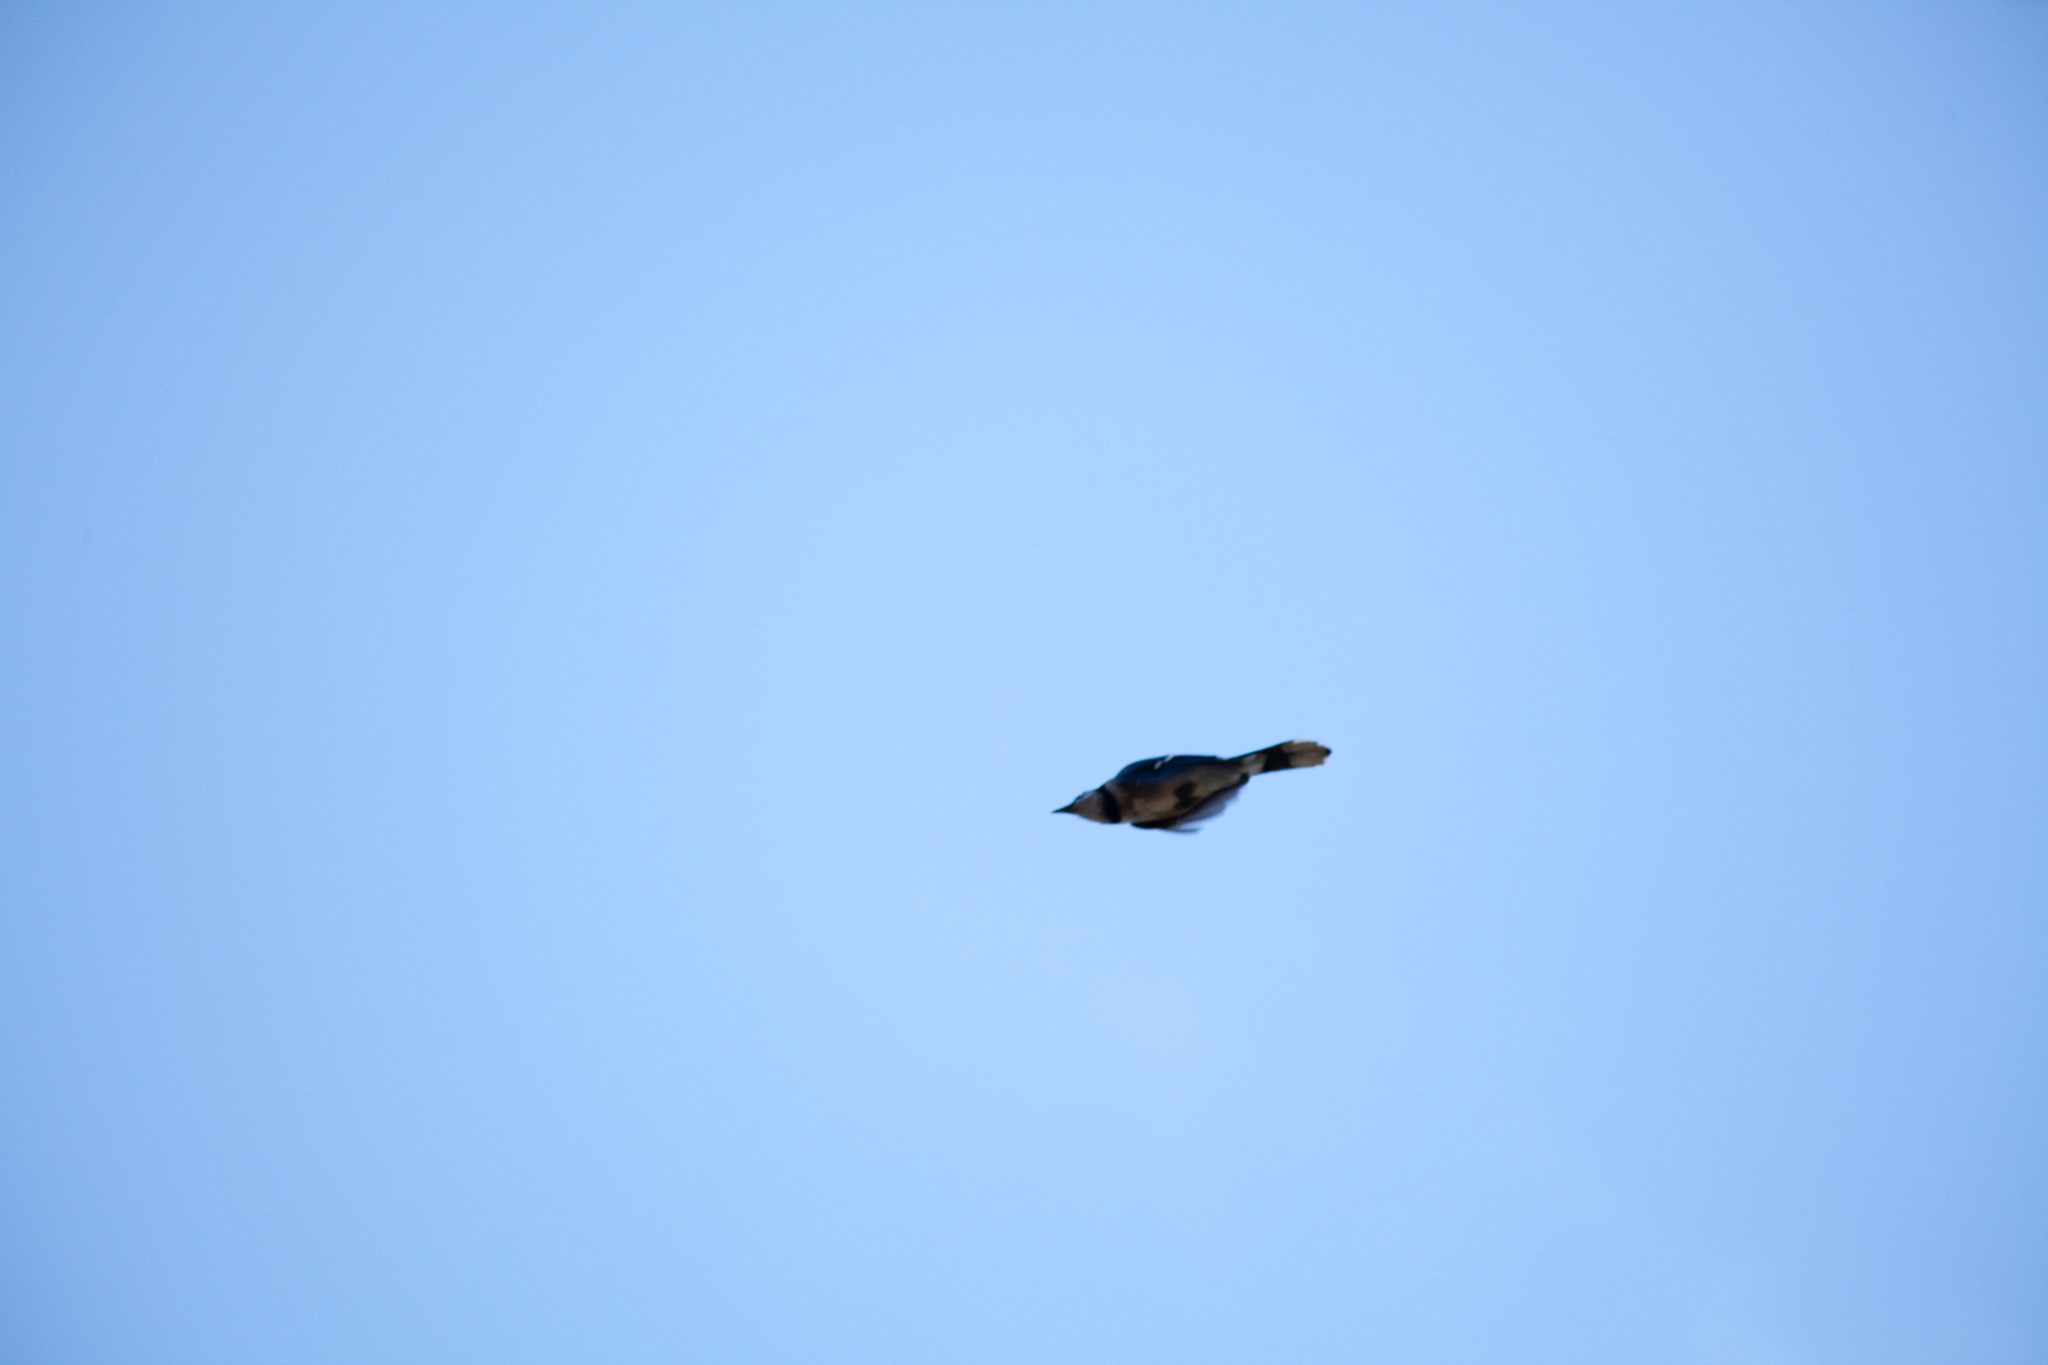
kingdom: Animalia
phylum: Chordata
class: Aves
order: Passeriformes
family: Corvidae
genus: Cyanocitta
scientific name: Cyanocitta cristata
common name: Blue jay
